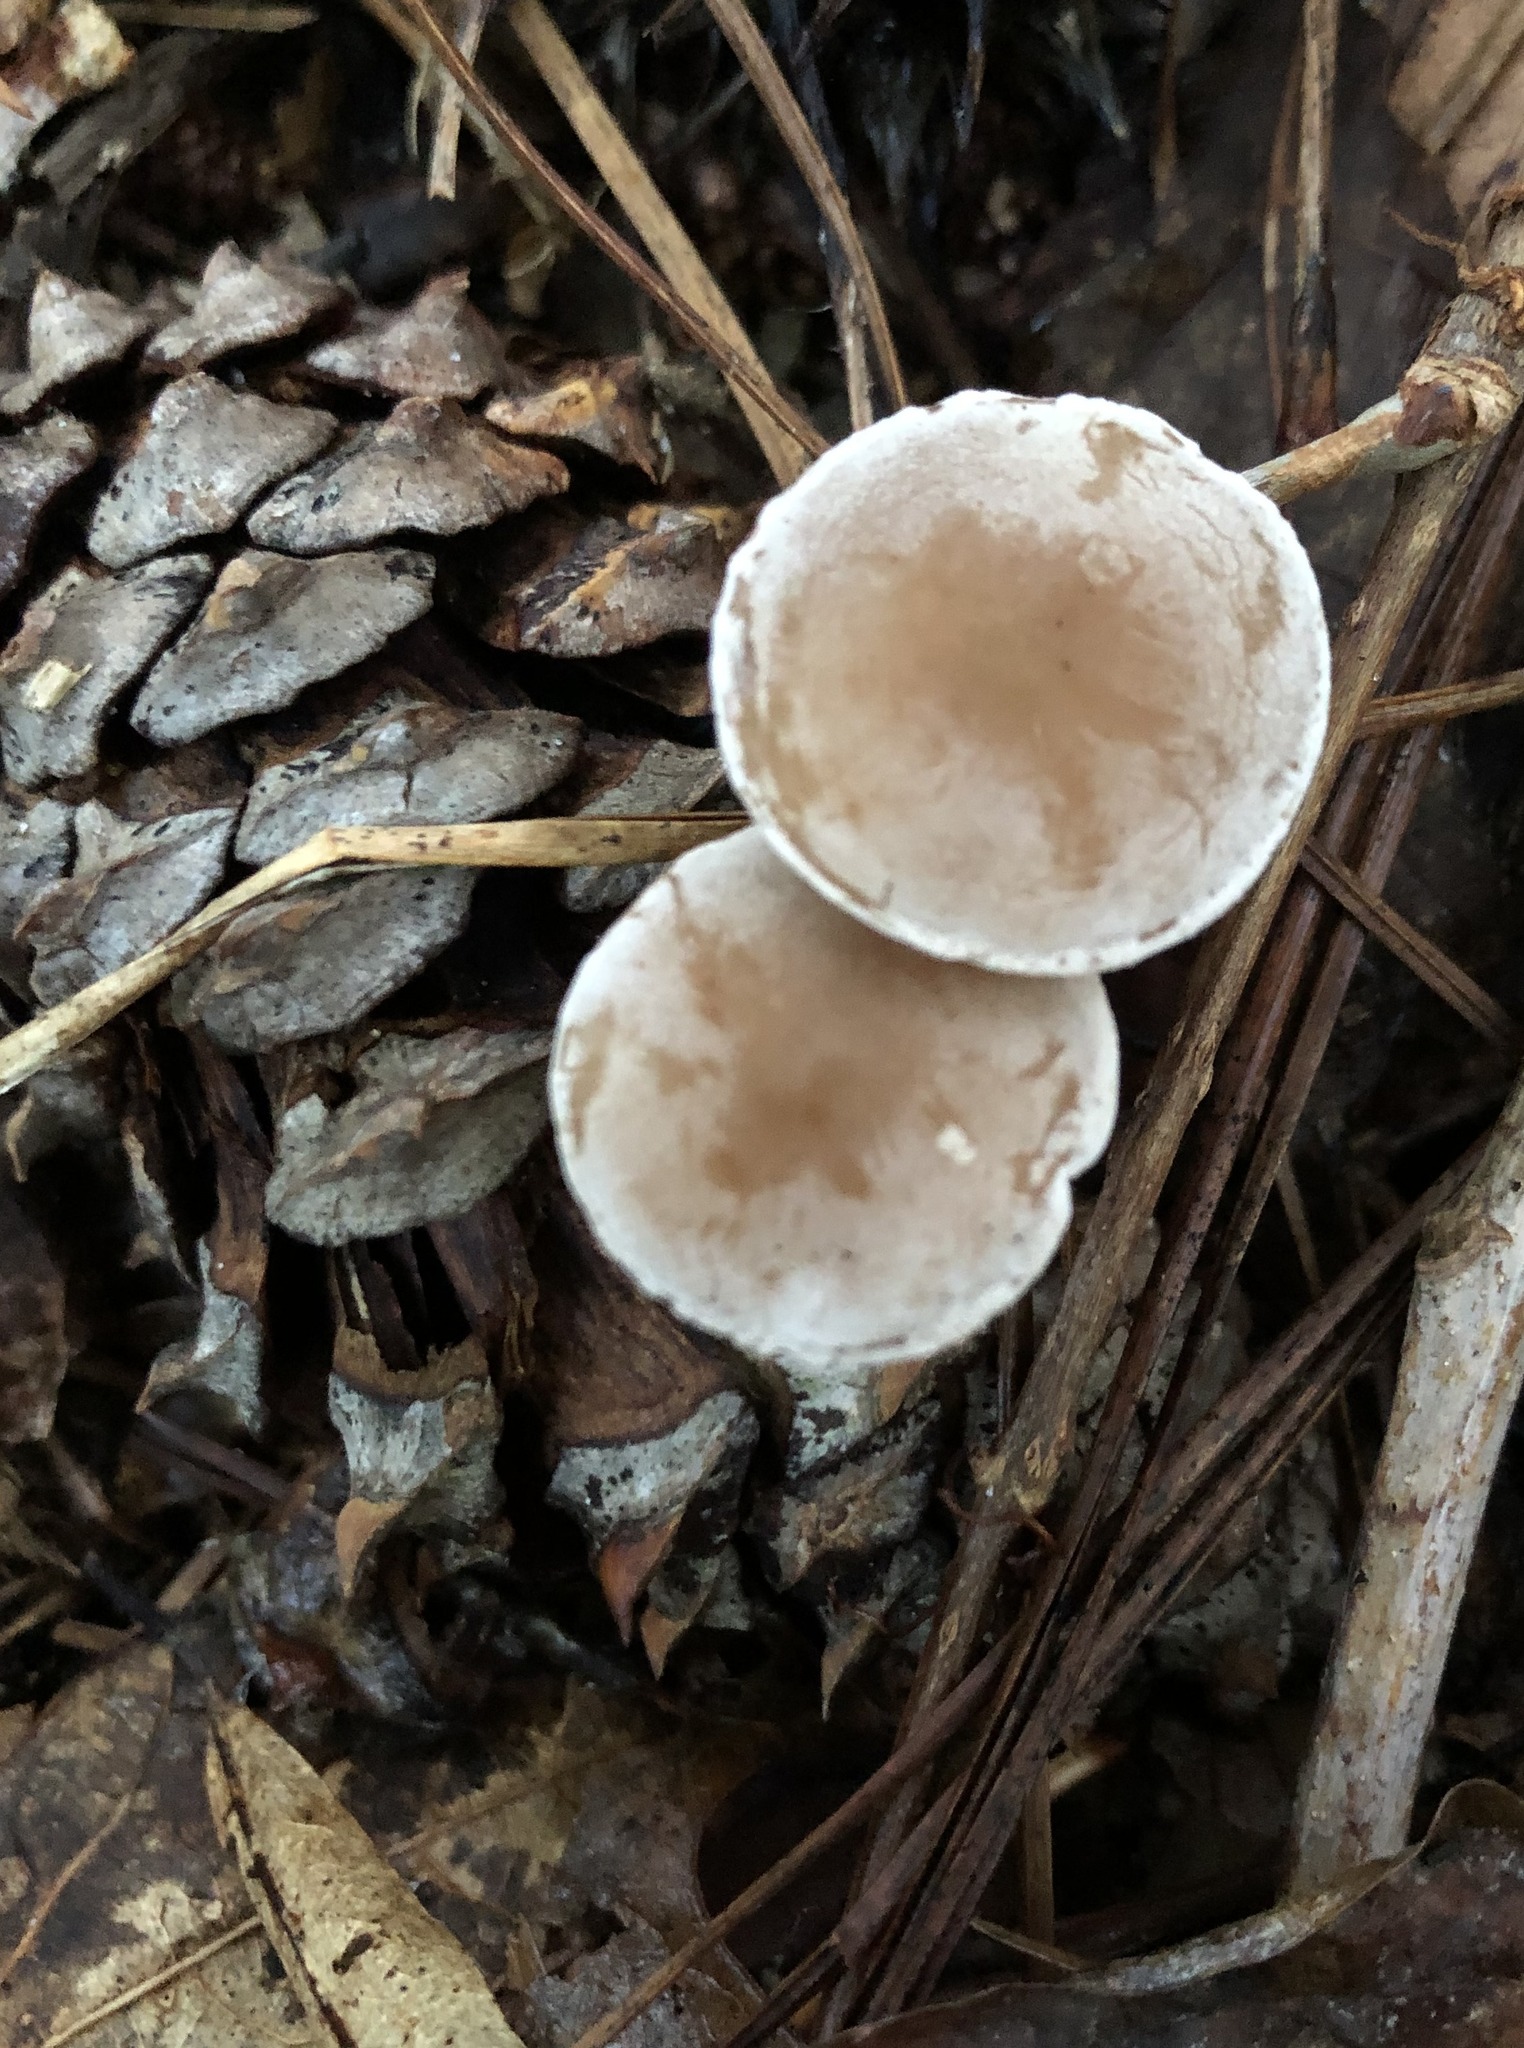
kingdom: Fungi
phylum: Basidiomycota
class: Agaricomycetes
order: Agaricales
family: Marasmiaceae
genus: Baeospora
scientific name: Baeospora myosura
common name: Conifercone cap
